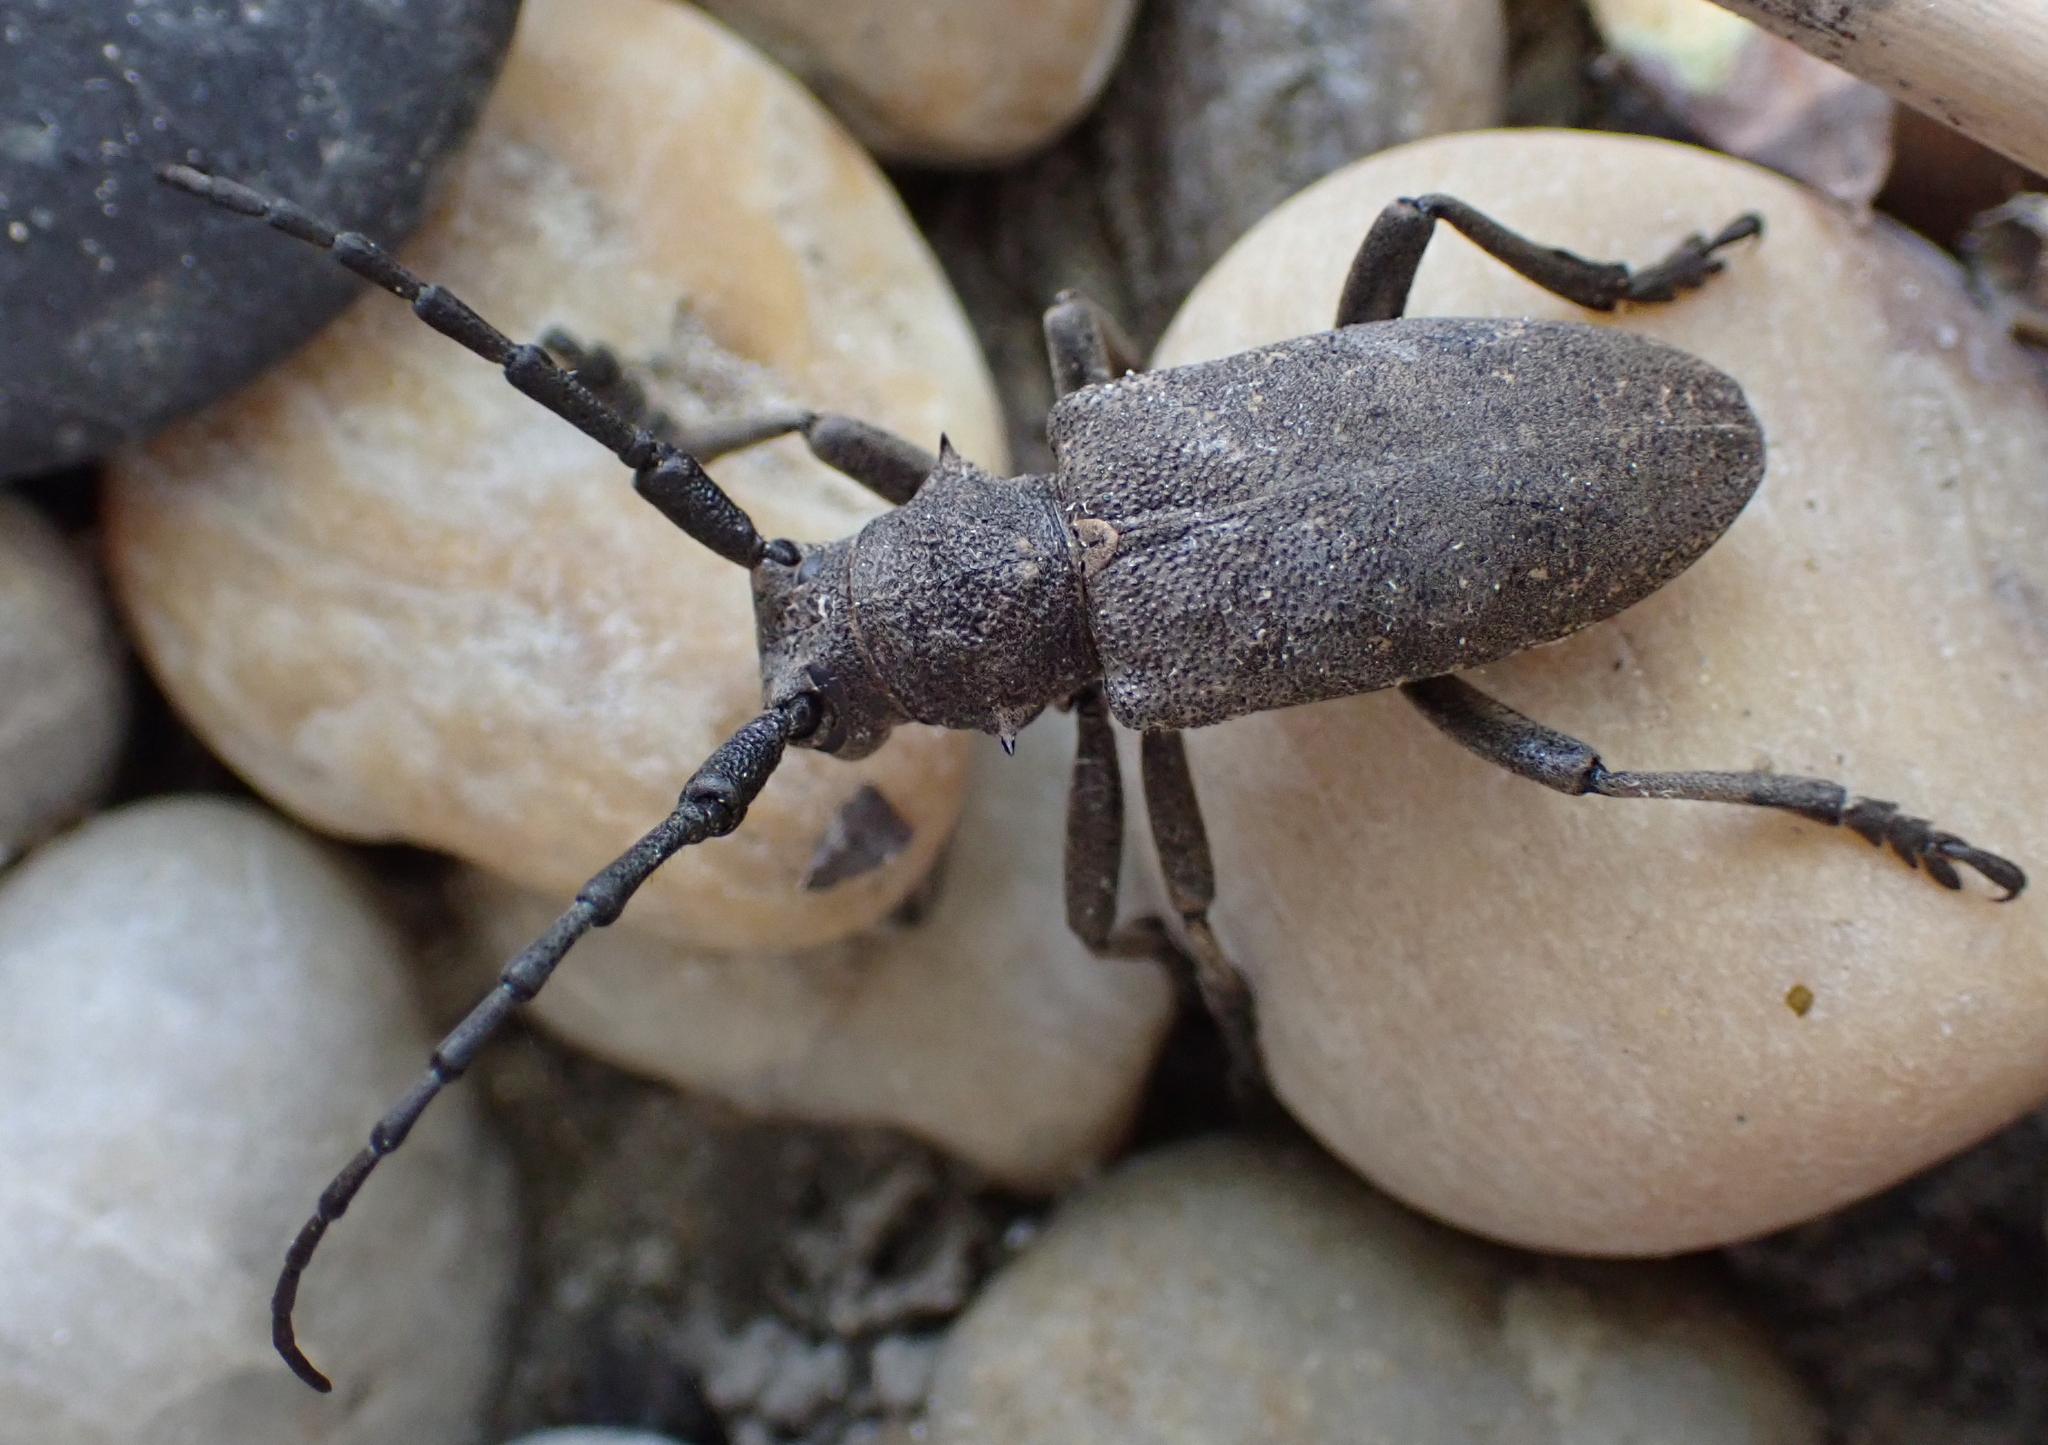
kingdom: Animalia
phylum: Arthropoda
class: Insecta
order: Coleoptera
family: Cerambycidae
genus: Lamia
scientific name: Lamia textor
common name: Weaver beetle
